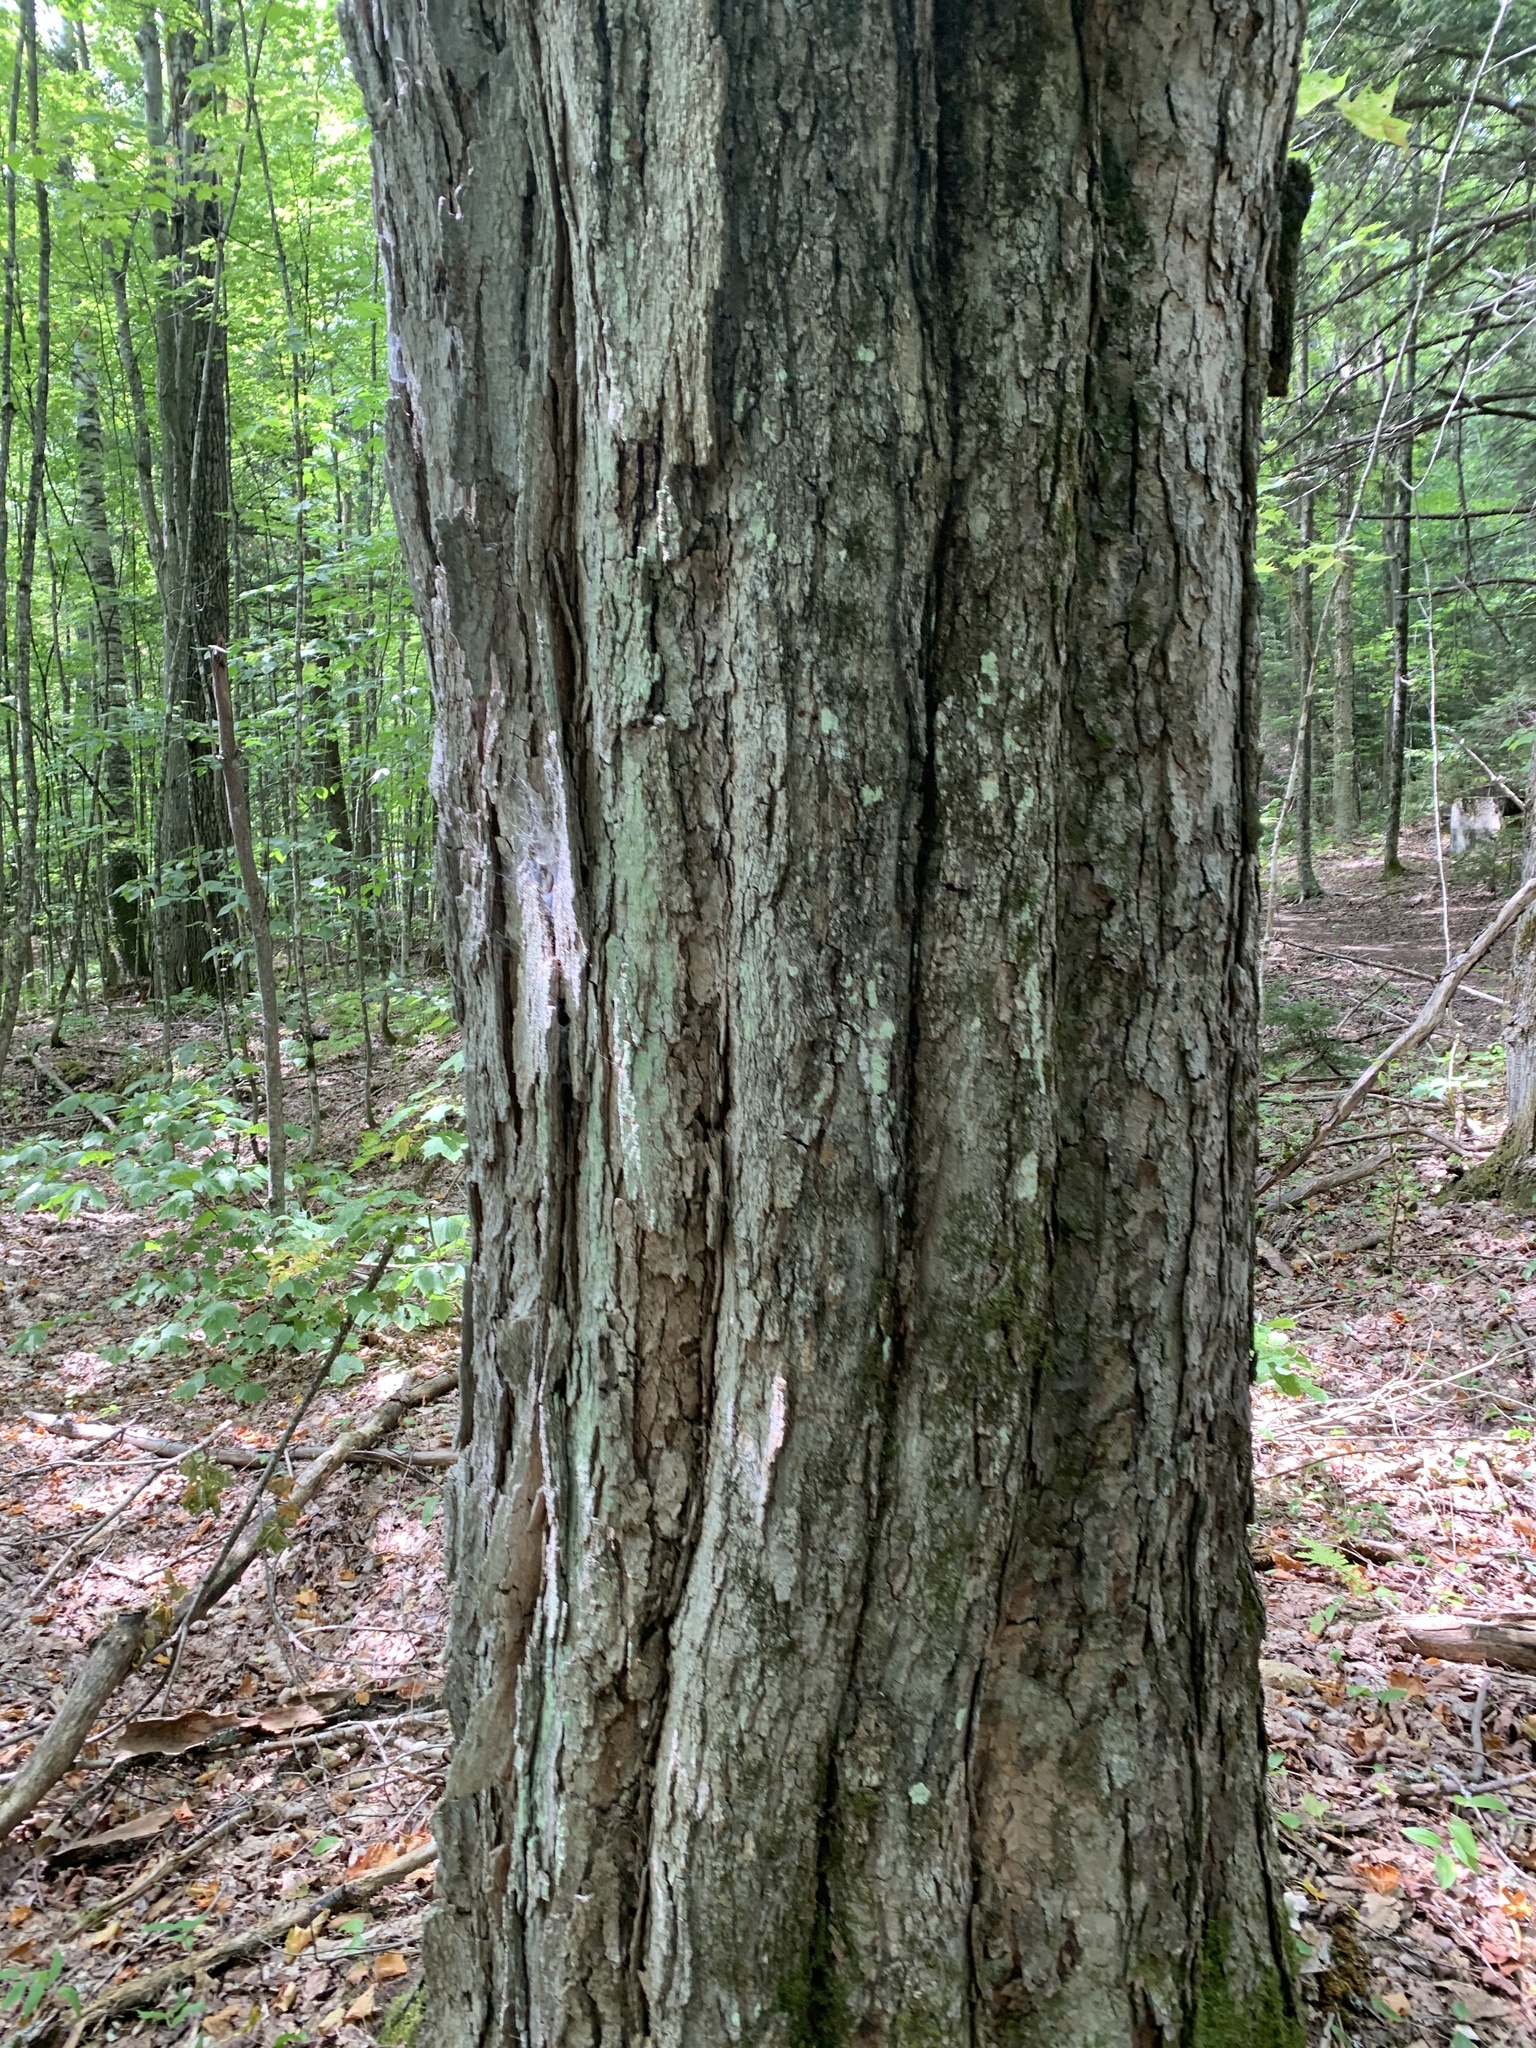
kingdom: Plantae
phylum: Tracheophyta
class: Magnoliopsida
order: Sapindales
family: Sapindaceae
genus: Acer
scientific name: Acer saccharum
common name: Sugar maple
